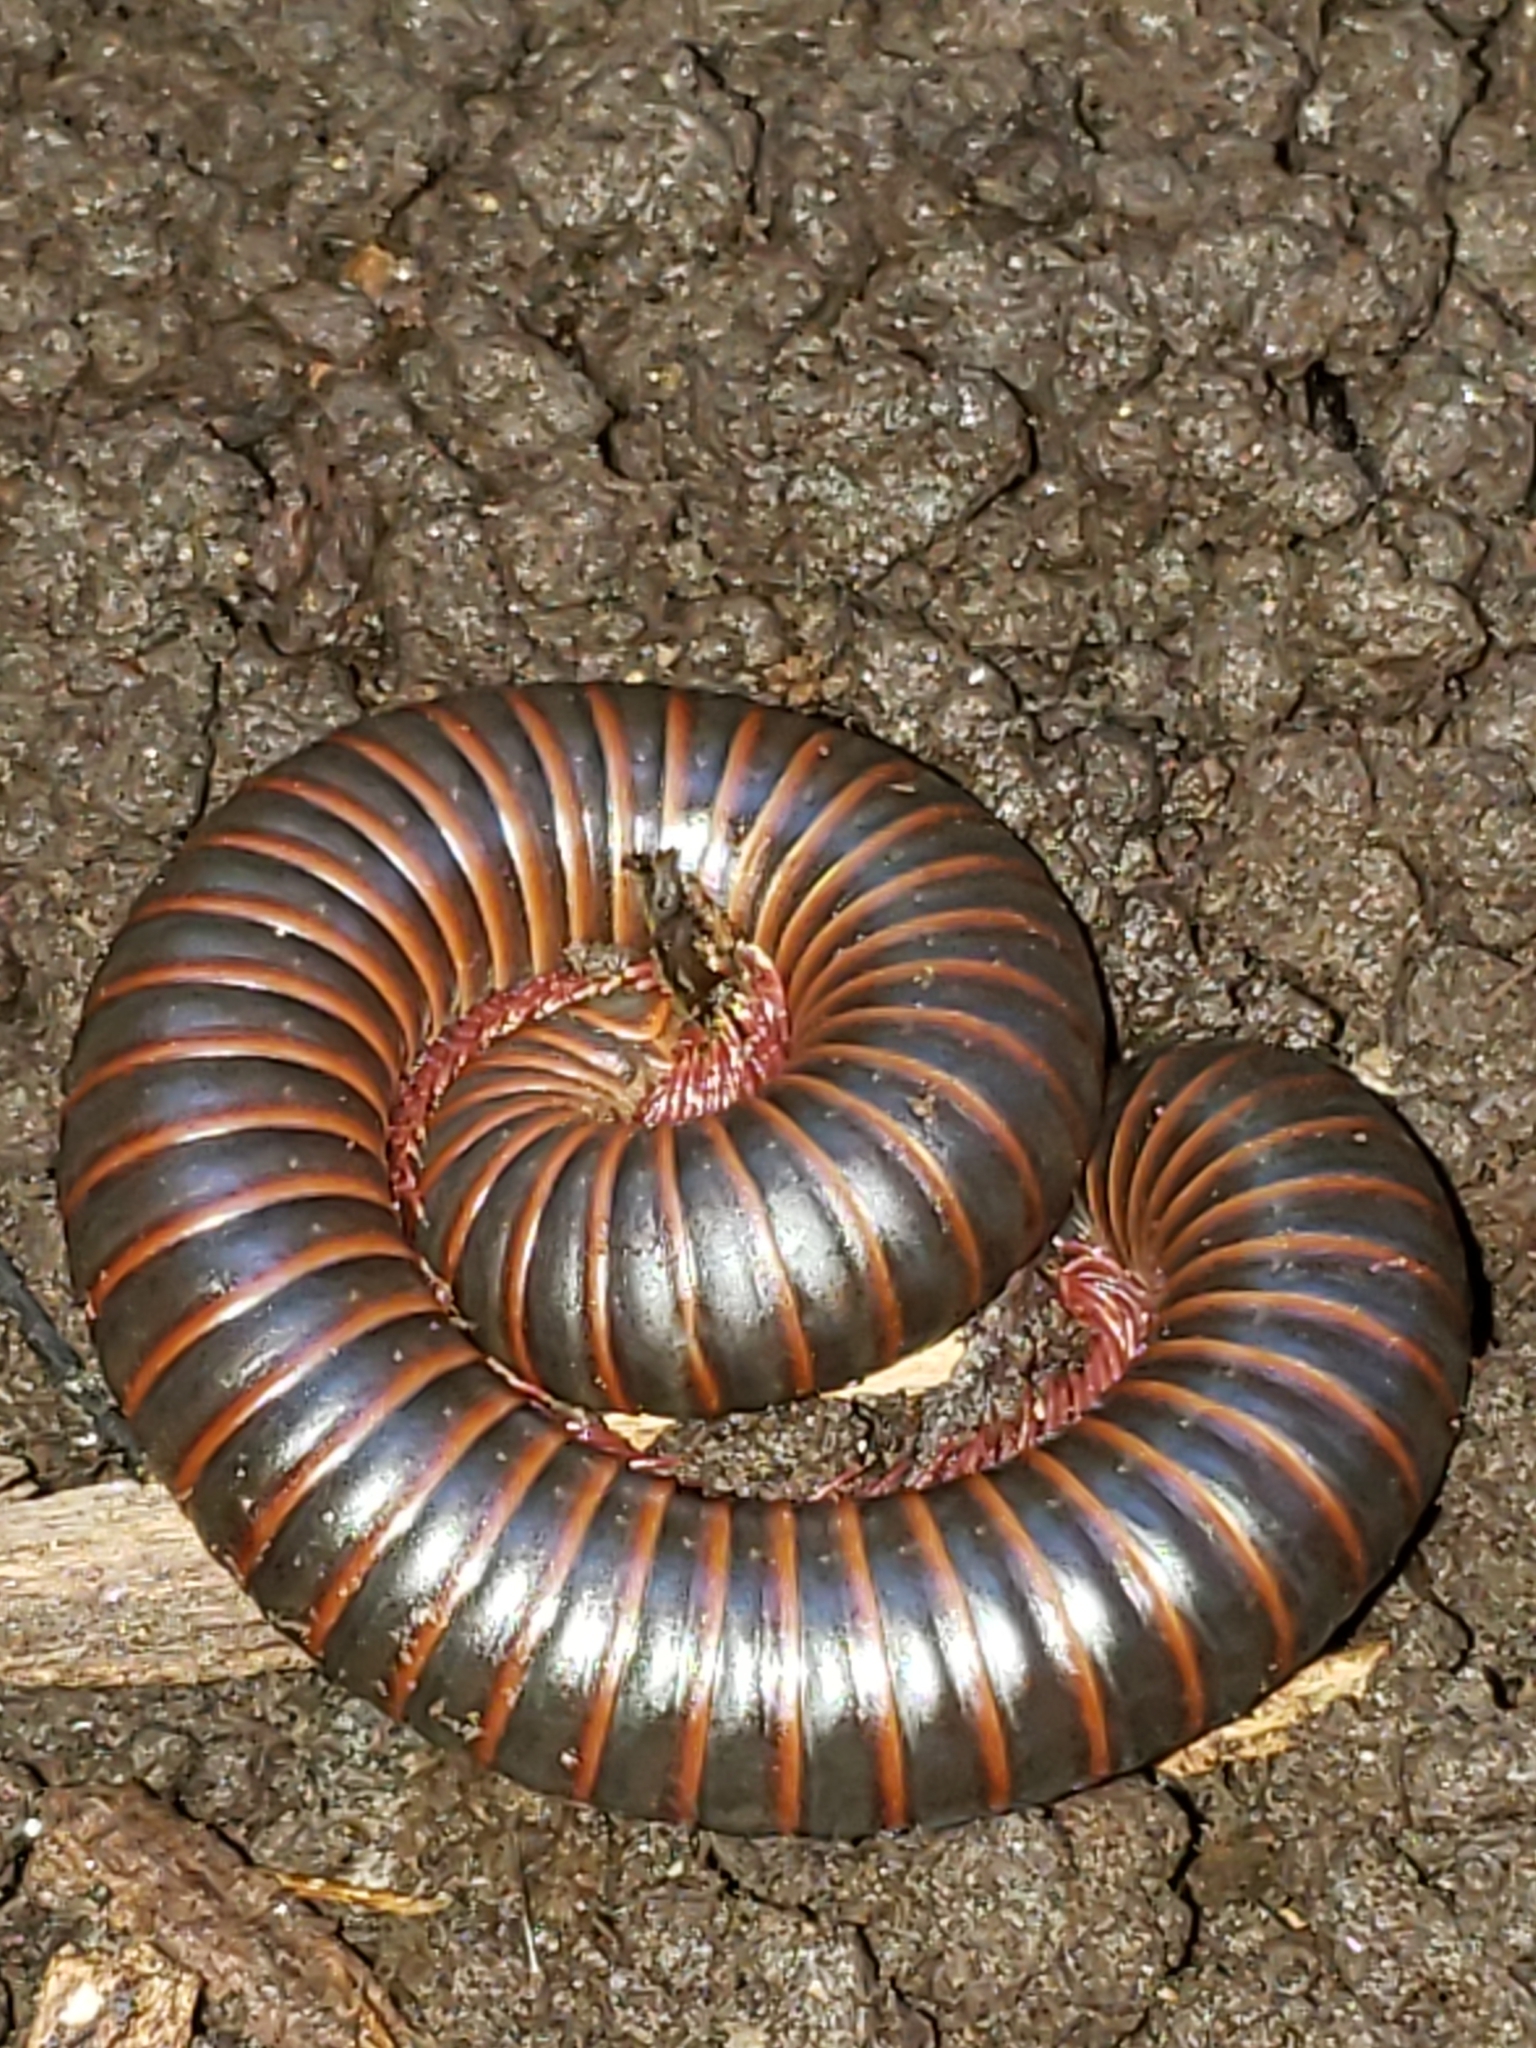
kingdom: Animalia
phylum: Arthropoda
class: Diplopoda
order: Spirobolida
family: Spirobolidae
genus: Narceus
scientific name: Narceus
